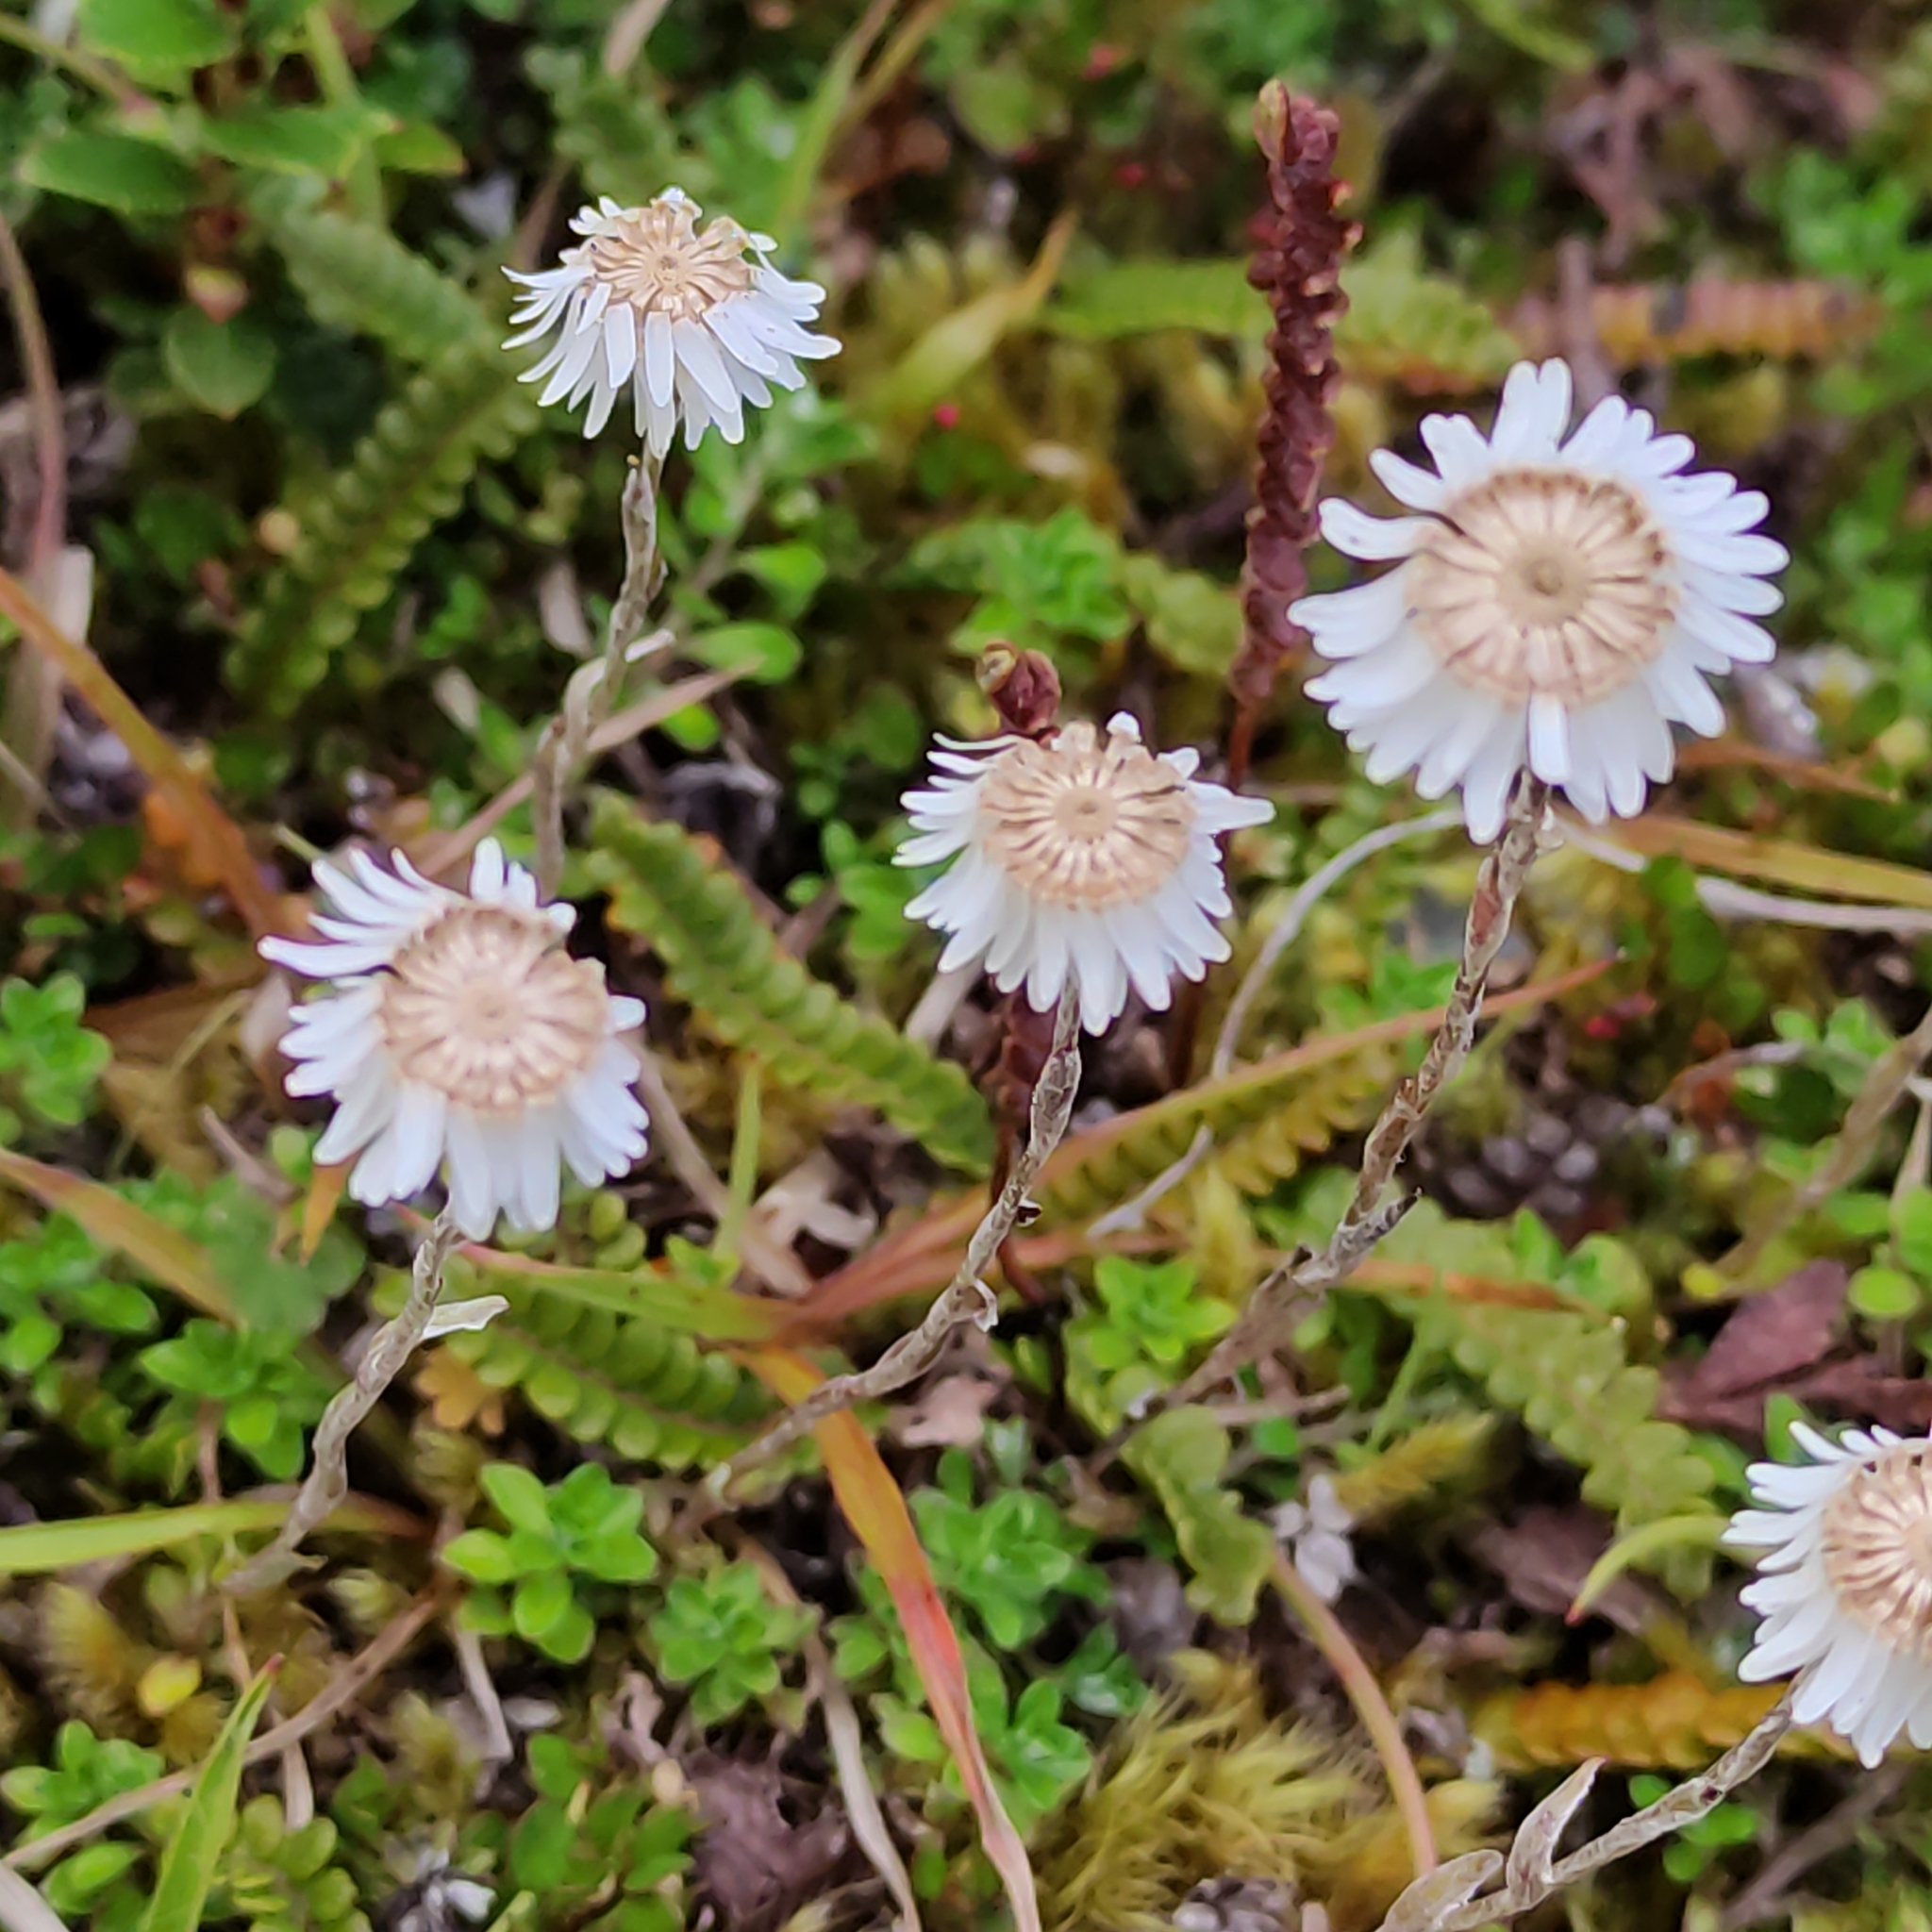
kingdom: Plantae
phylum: Tracheophyta
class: Magnoliopsida
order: Asterales
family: Asteraceae
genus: Anaphalioides
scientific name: Anaphalioides bellidioides
